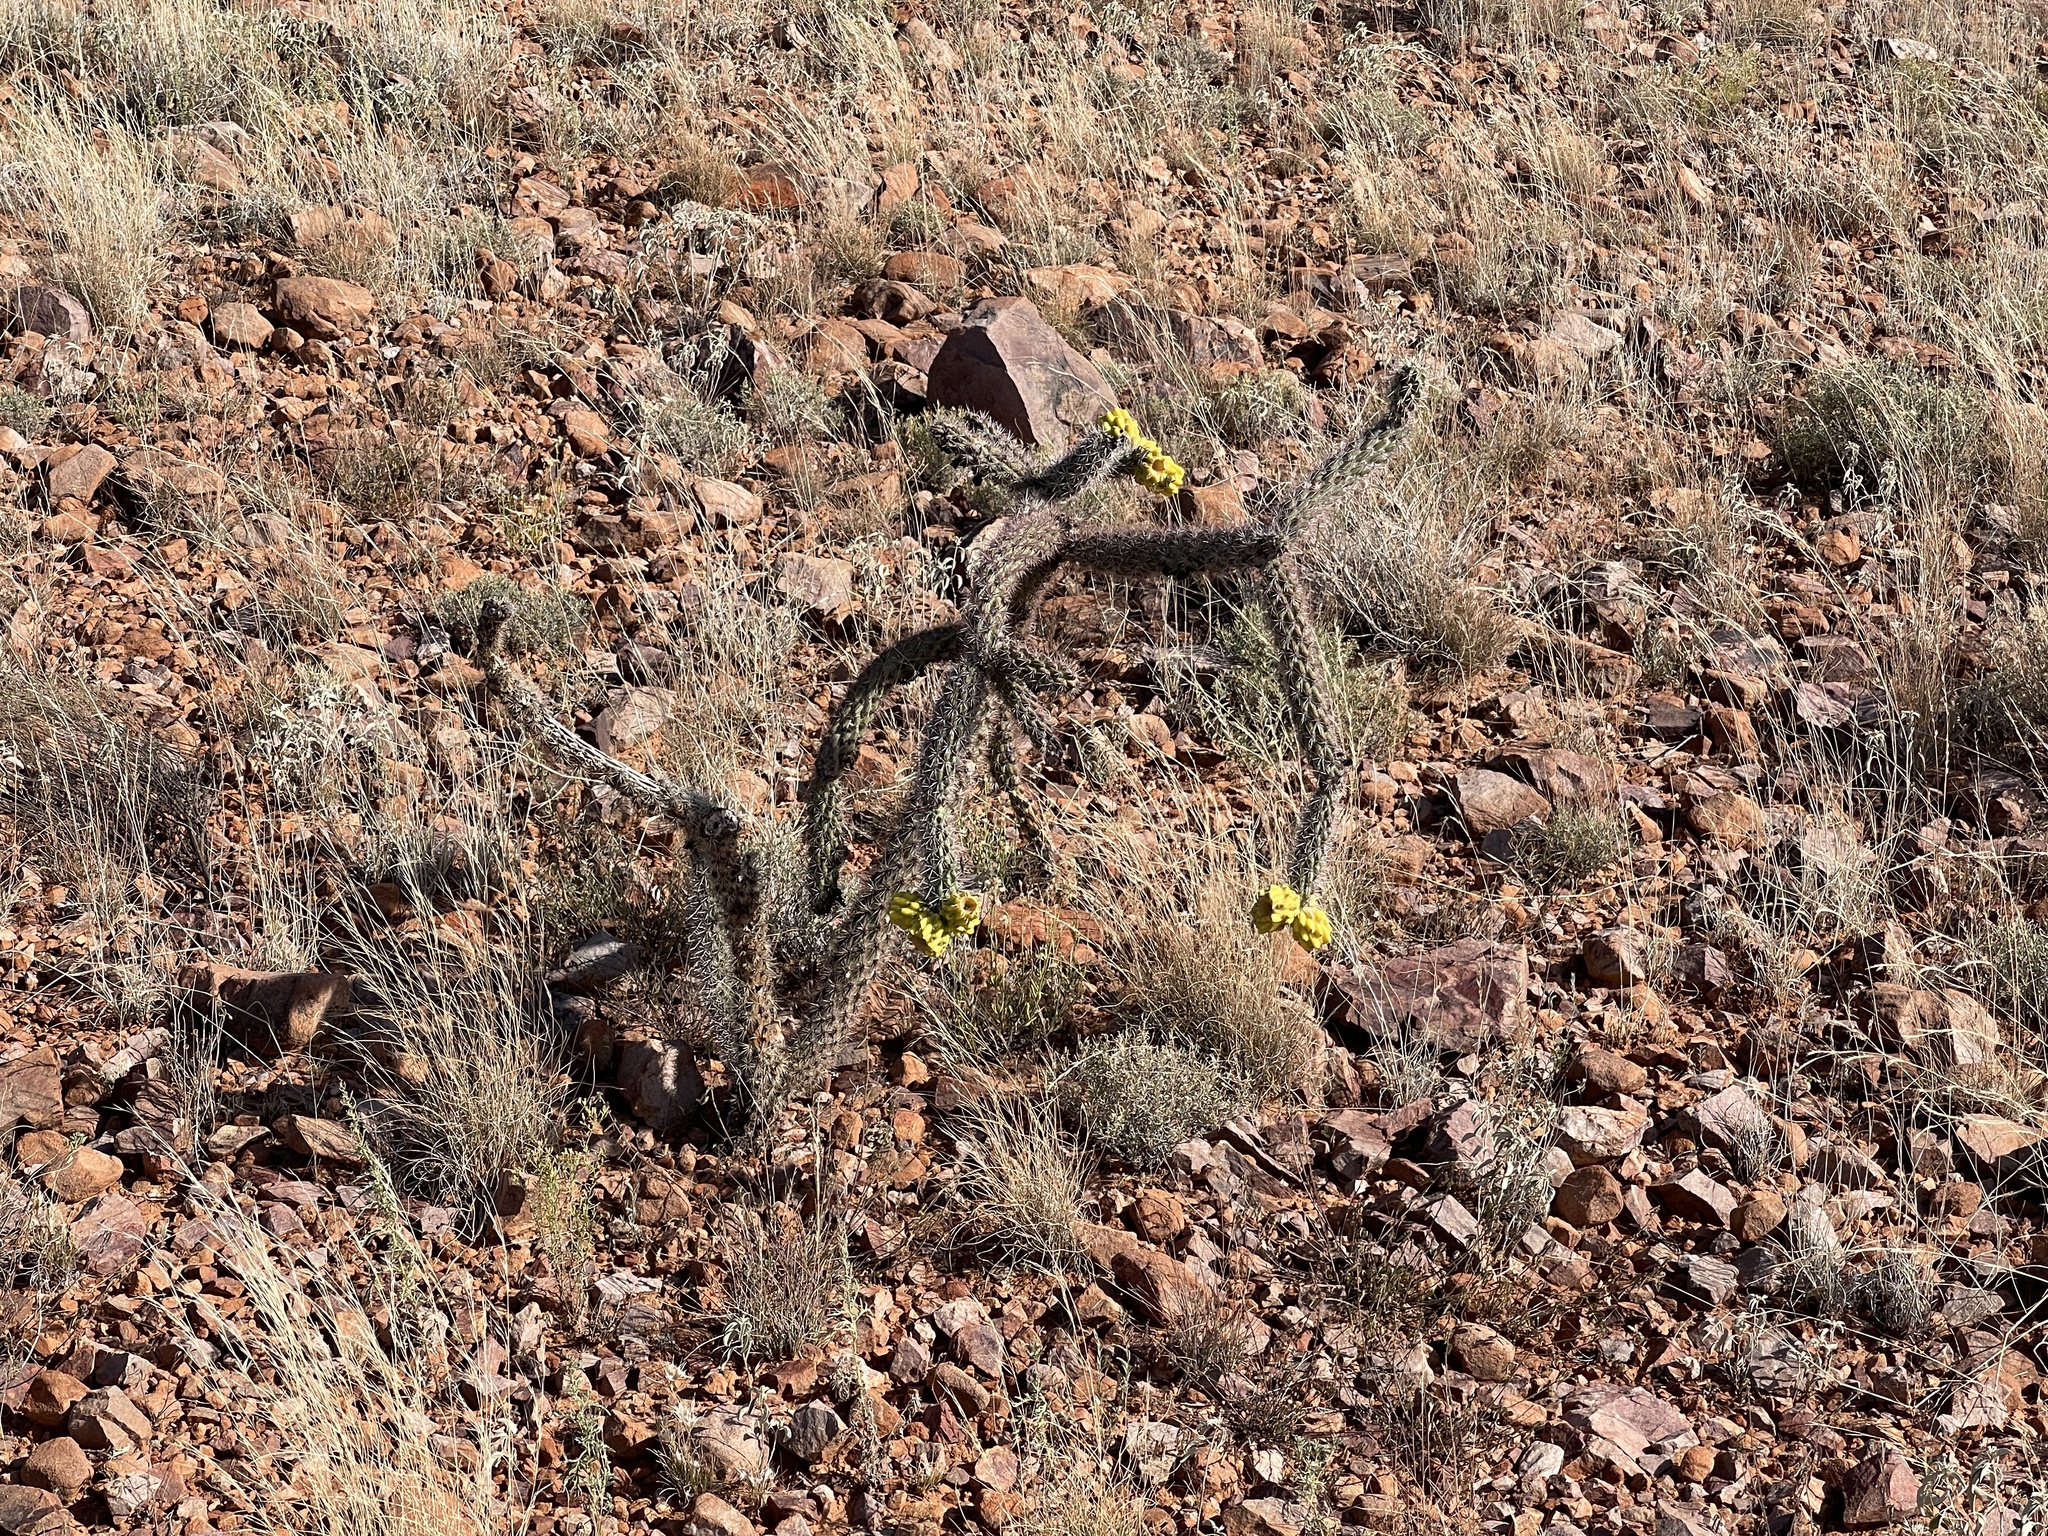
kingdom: Plantae
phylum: Tracheophyta
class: Magnoliopsida
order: Caryophyllales
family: Cactaceae
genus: Cylindropuntia
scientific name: Cylindropuntia imbricata
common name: Candelabrum cactus
